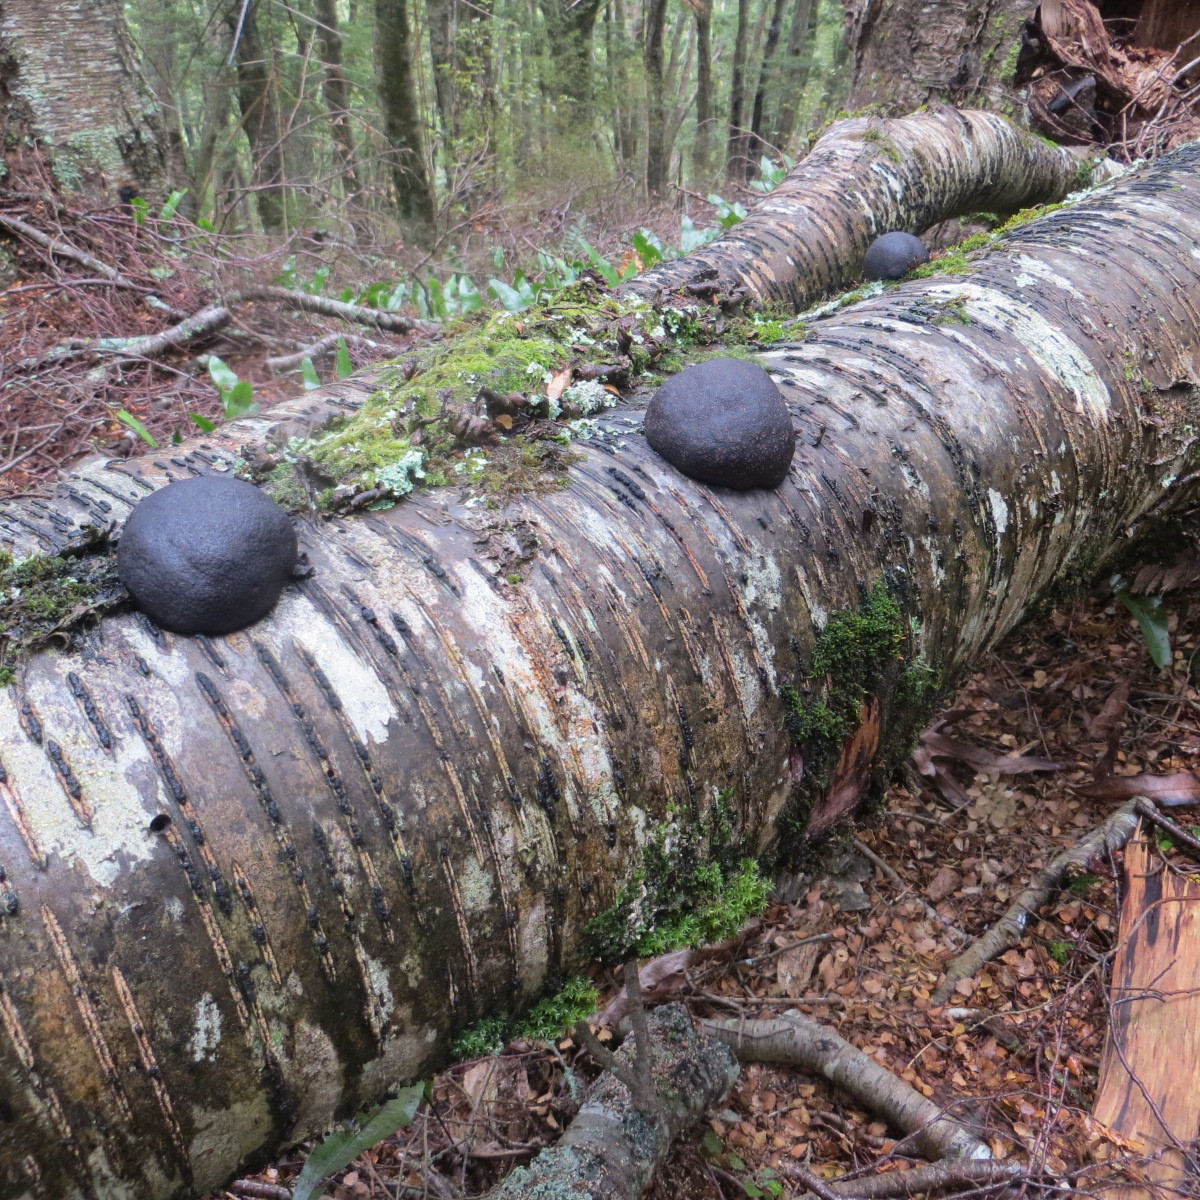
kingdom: Fungi
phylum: Ascomycota
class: Sordariomycetes
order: Xylariales
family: Hypoxylaceae
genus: Daldinia
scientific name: Daldinia
